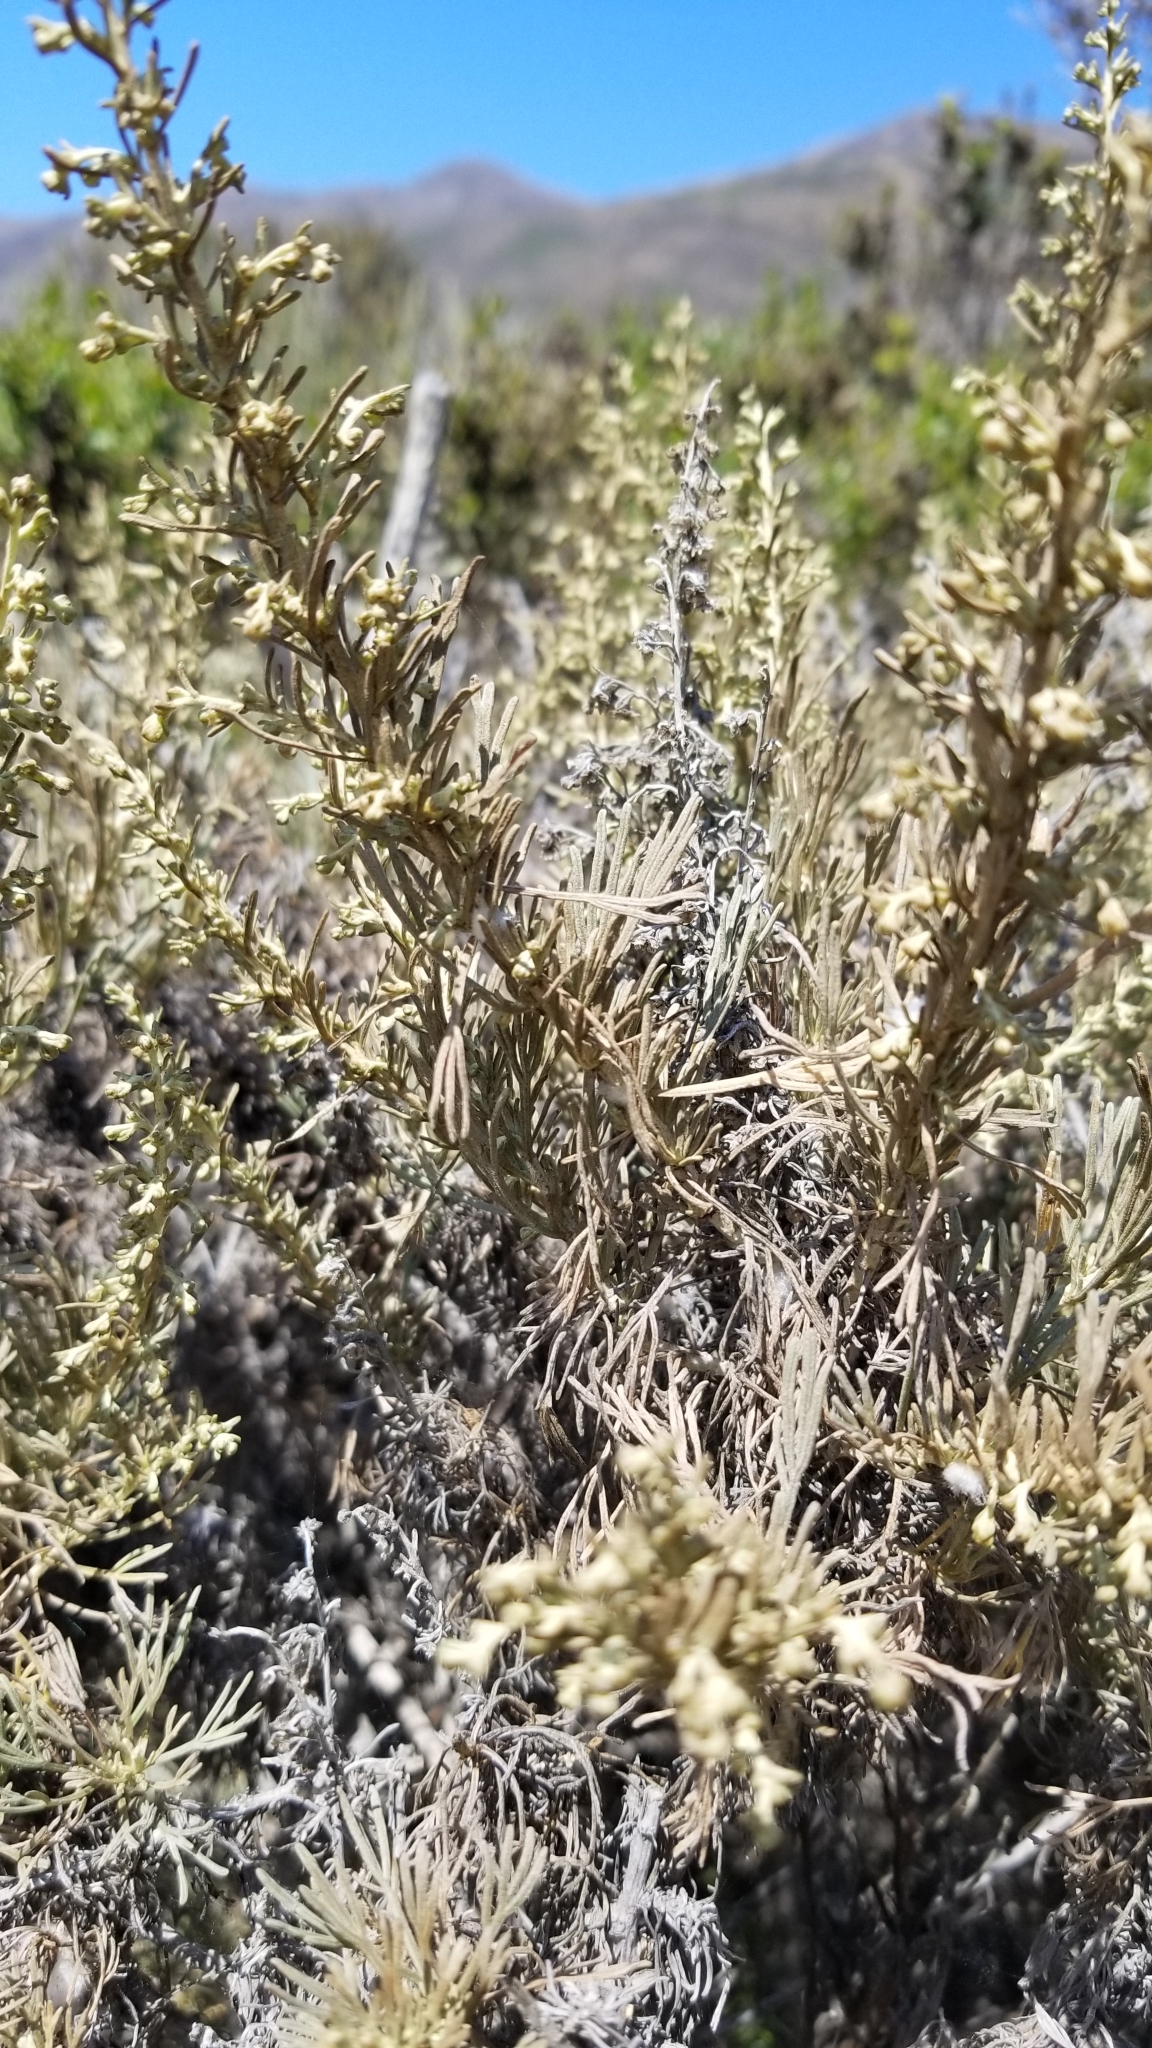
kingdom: Plantae
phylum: Tracheophyta
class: Magnoliopsida
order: Asterales
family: Asteraceae
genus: Artemisia
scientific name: Artemisia californica
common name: California sagebrush
